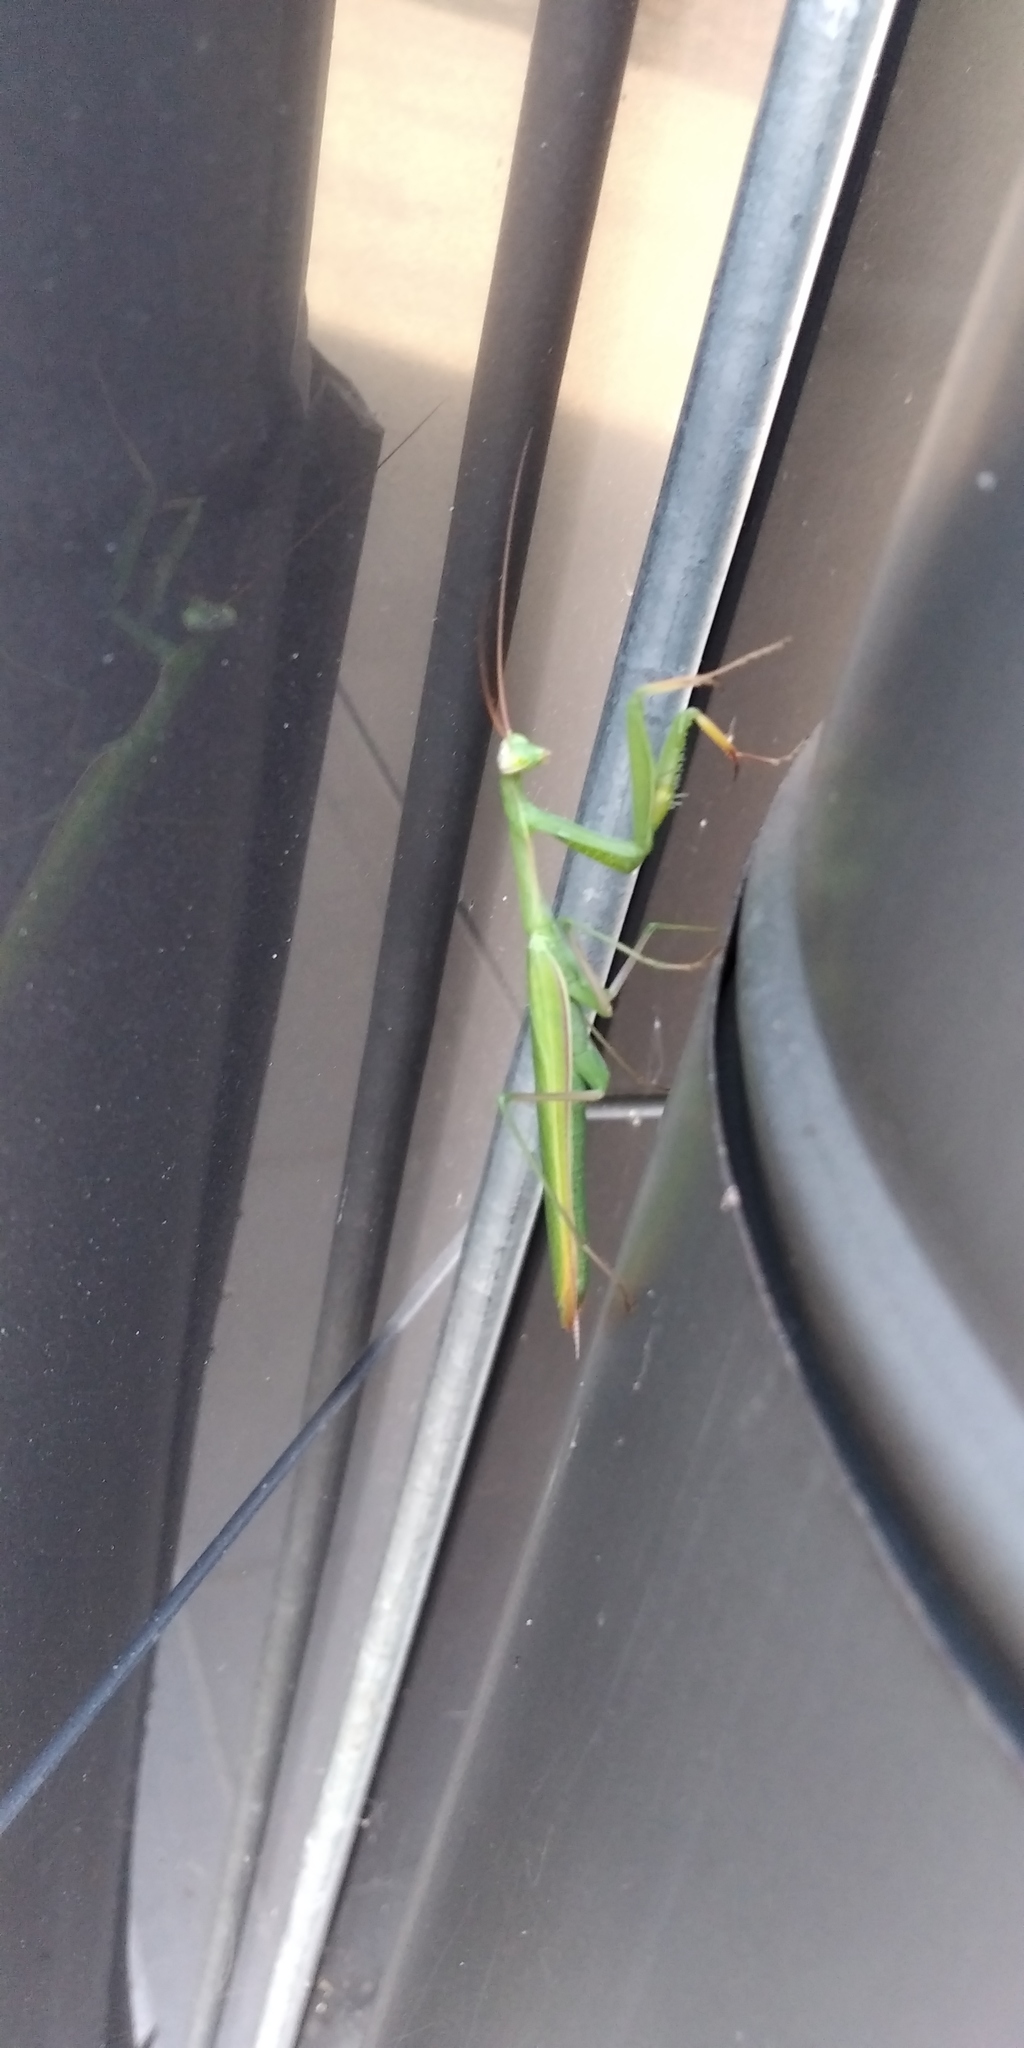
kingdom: Animalia
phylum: Arthropoda
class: Insecta
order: Mantodea
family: Mantidae
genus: Mantis
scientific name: Mantis religiosa
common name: Praying mantis
